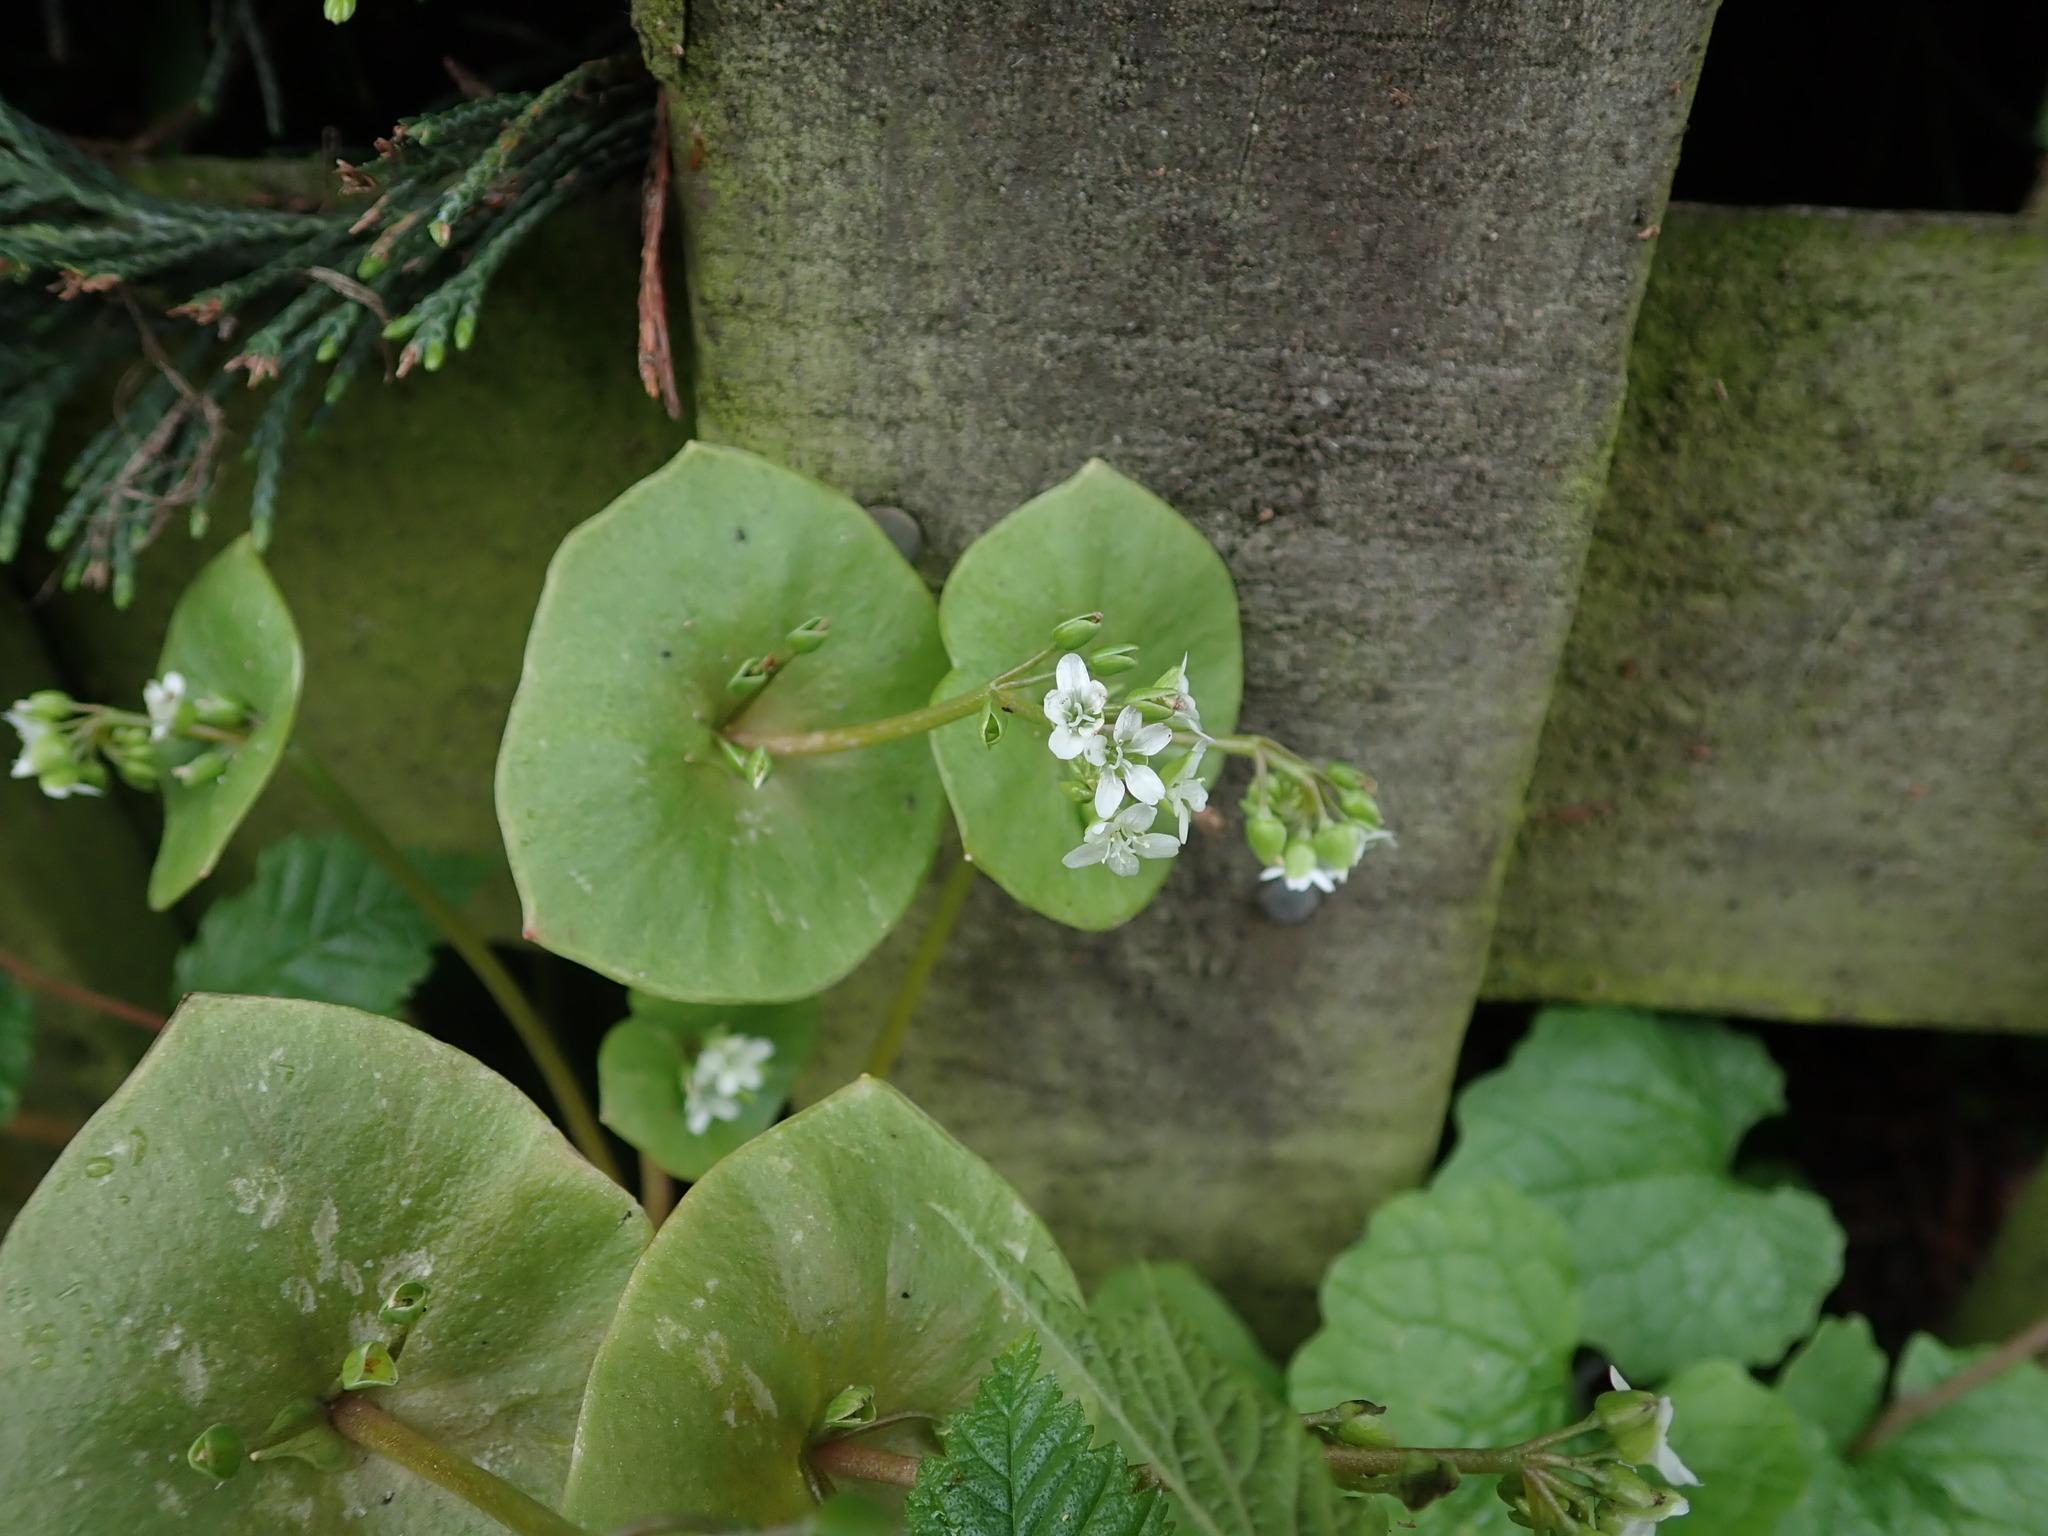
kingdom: Plantae
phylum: Tracheophyta
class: Magnoliopsida
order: Caryophyllales
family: Montiaceae
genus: Claytonia
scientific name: Claytonia perfoliata
